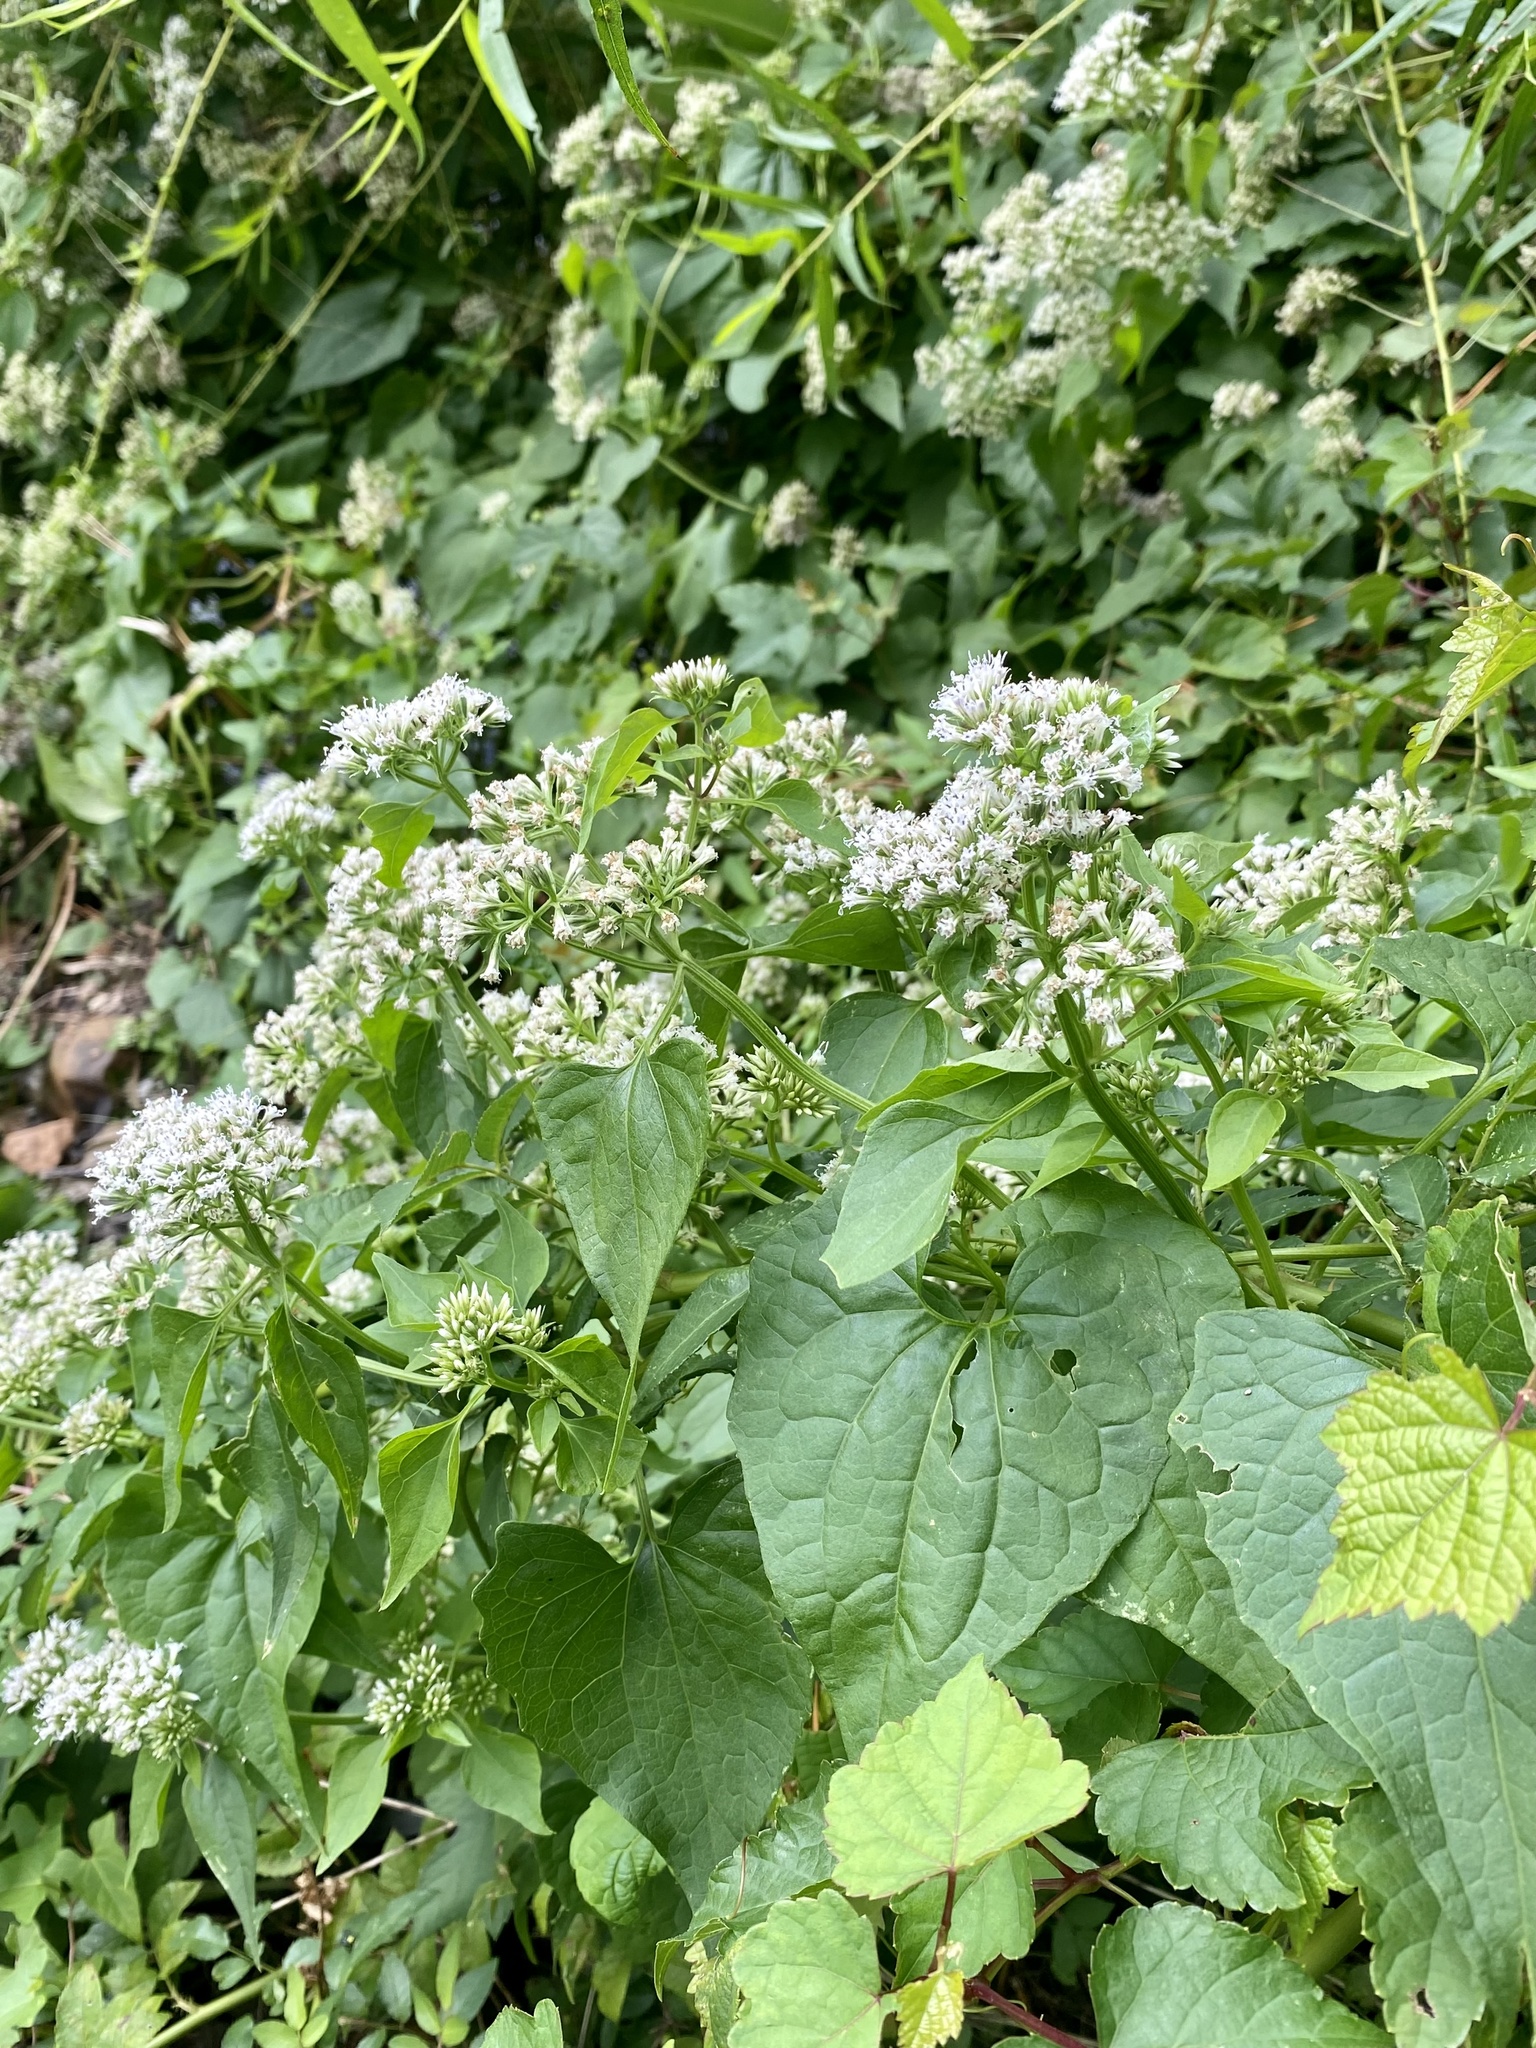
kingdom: Plantae
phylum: Tracheophyta
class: Magnoliopsida
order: Asterales
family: Asteraceae
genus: Mikania
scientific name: Mikania scandens
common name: Climbing hempvine
